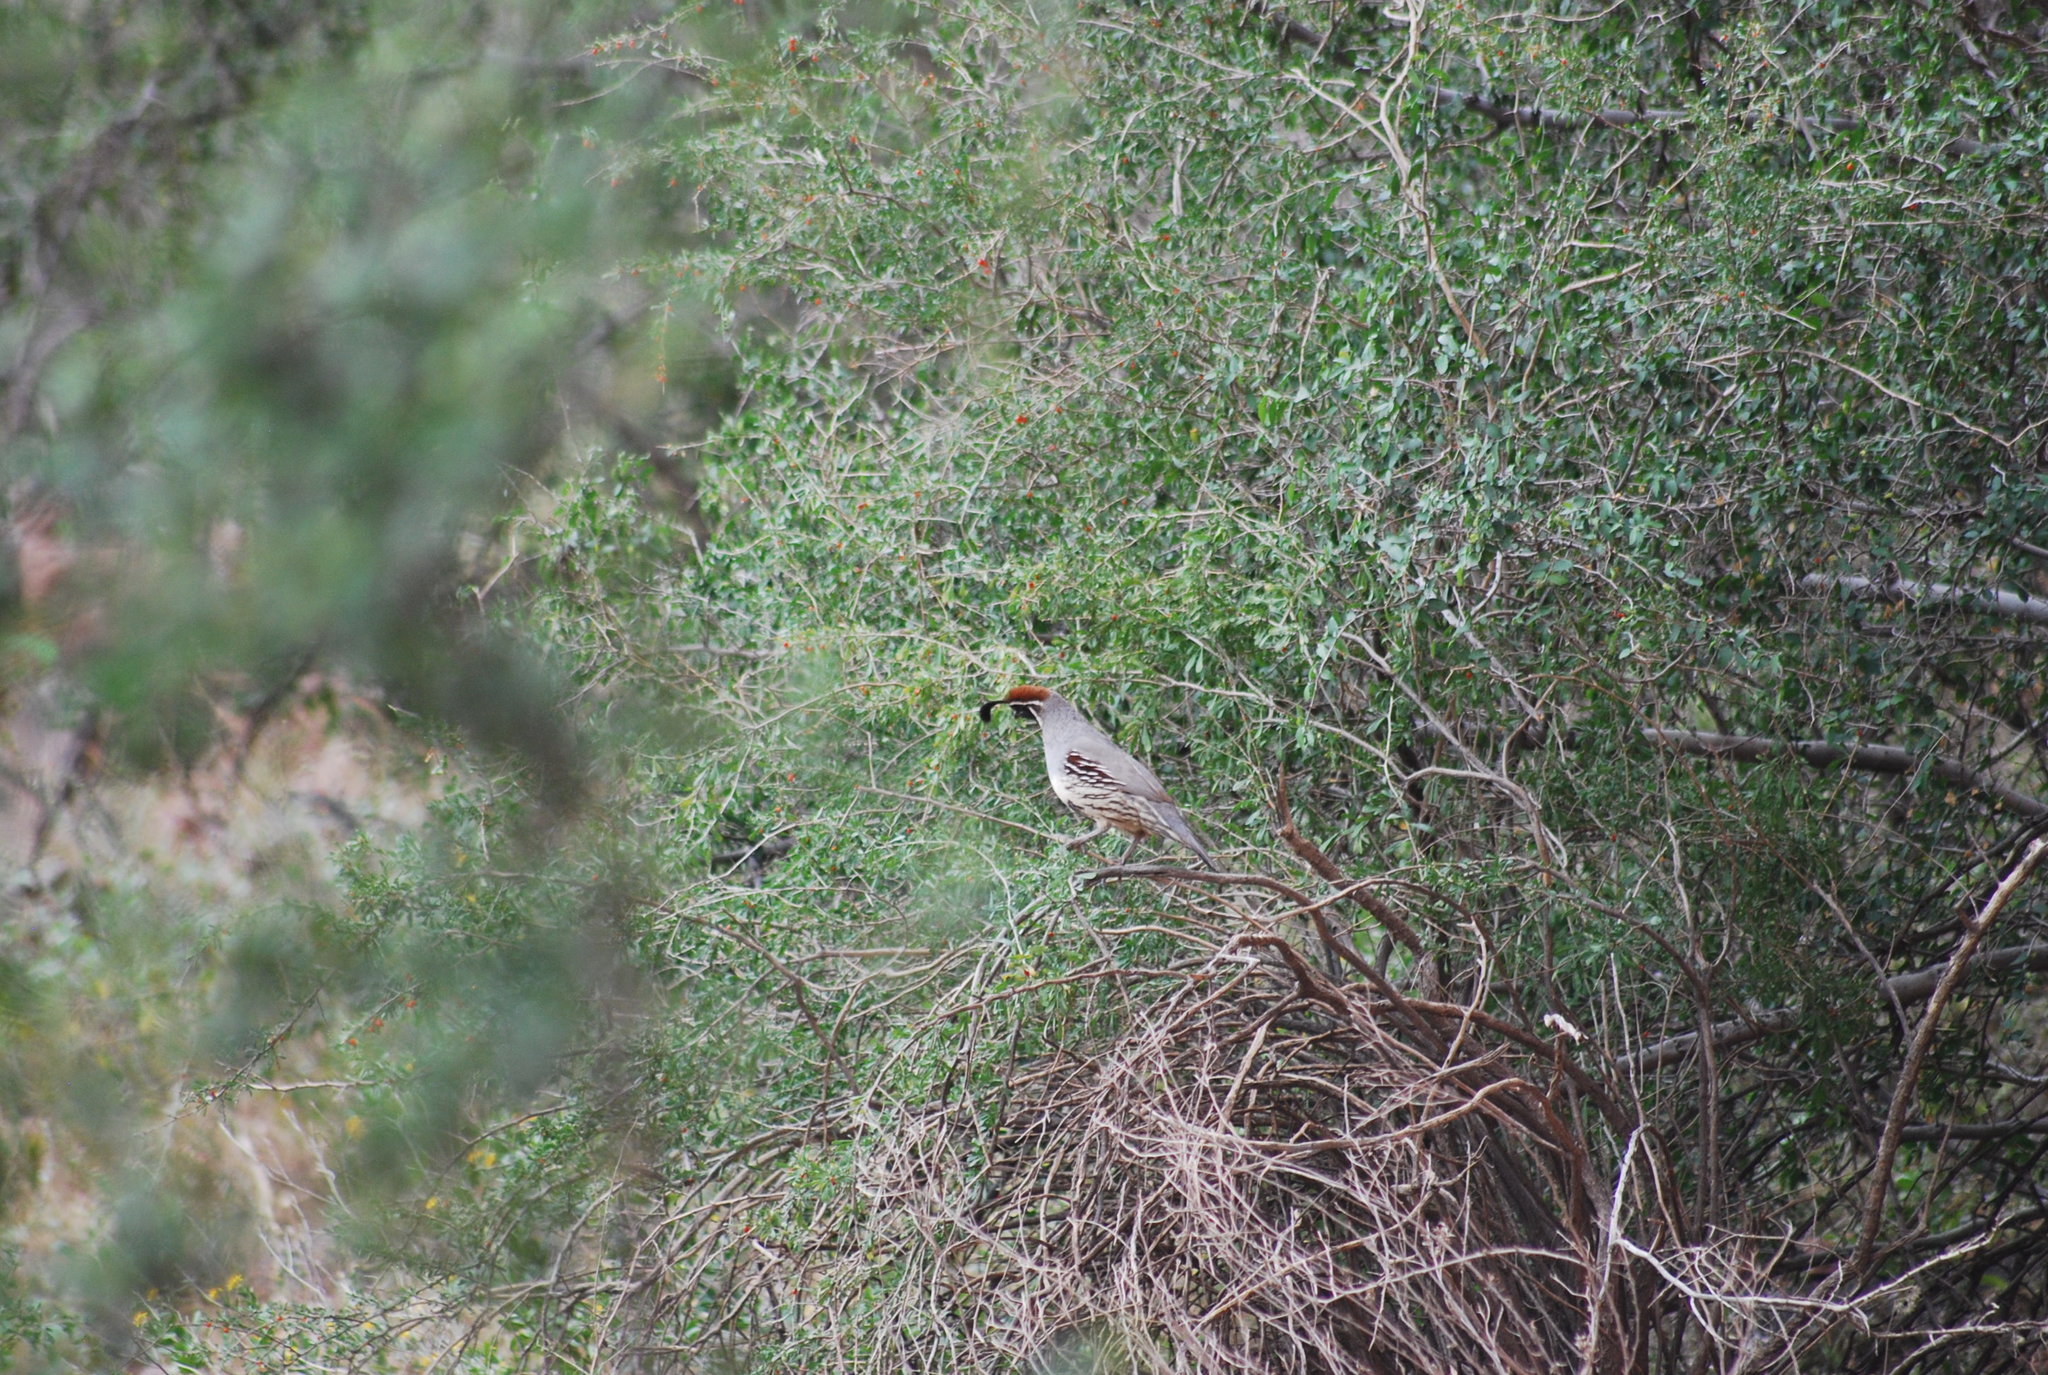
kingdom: Animalia
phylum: Chordata
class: Aves
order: Galliformes
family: Odontophoridae
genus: Callipepla
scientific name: Callipepla gambelii
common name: Gambel's quail
